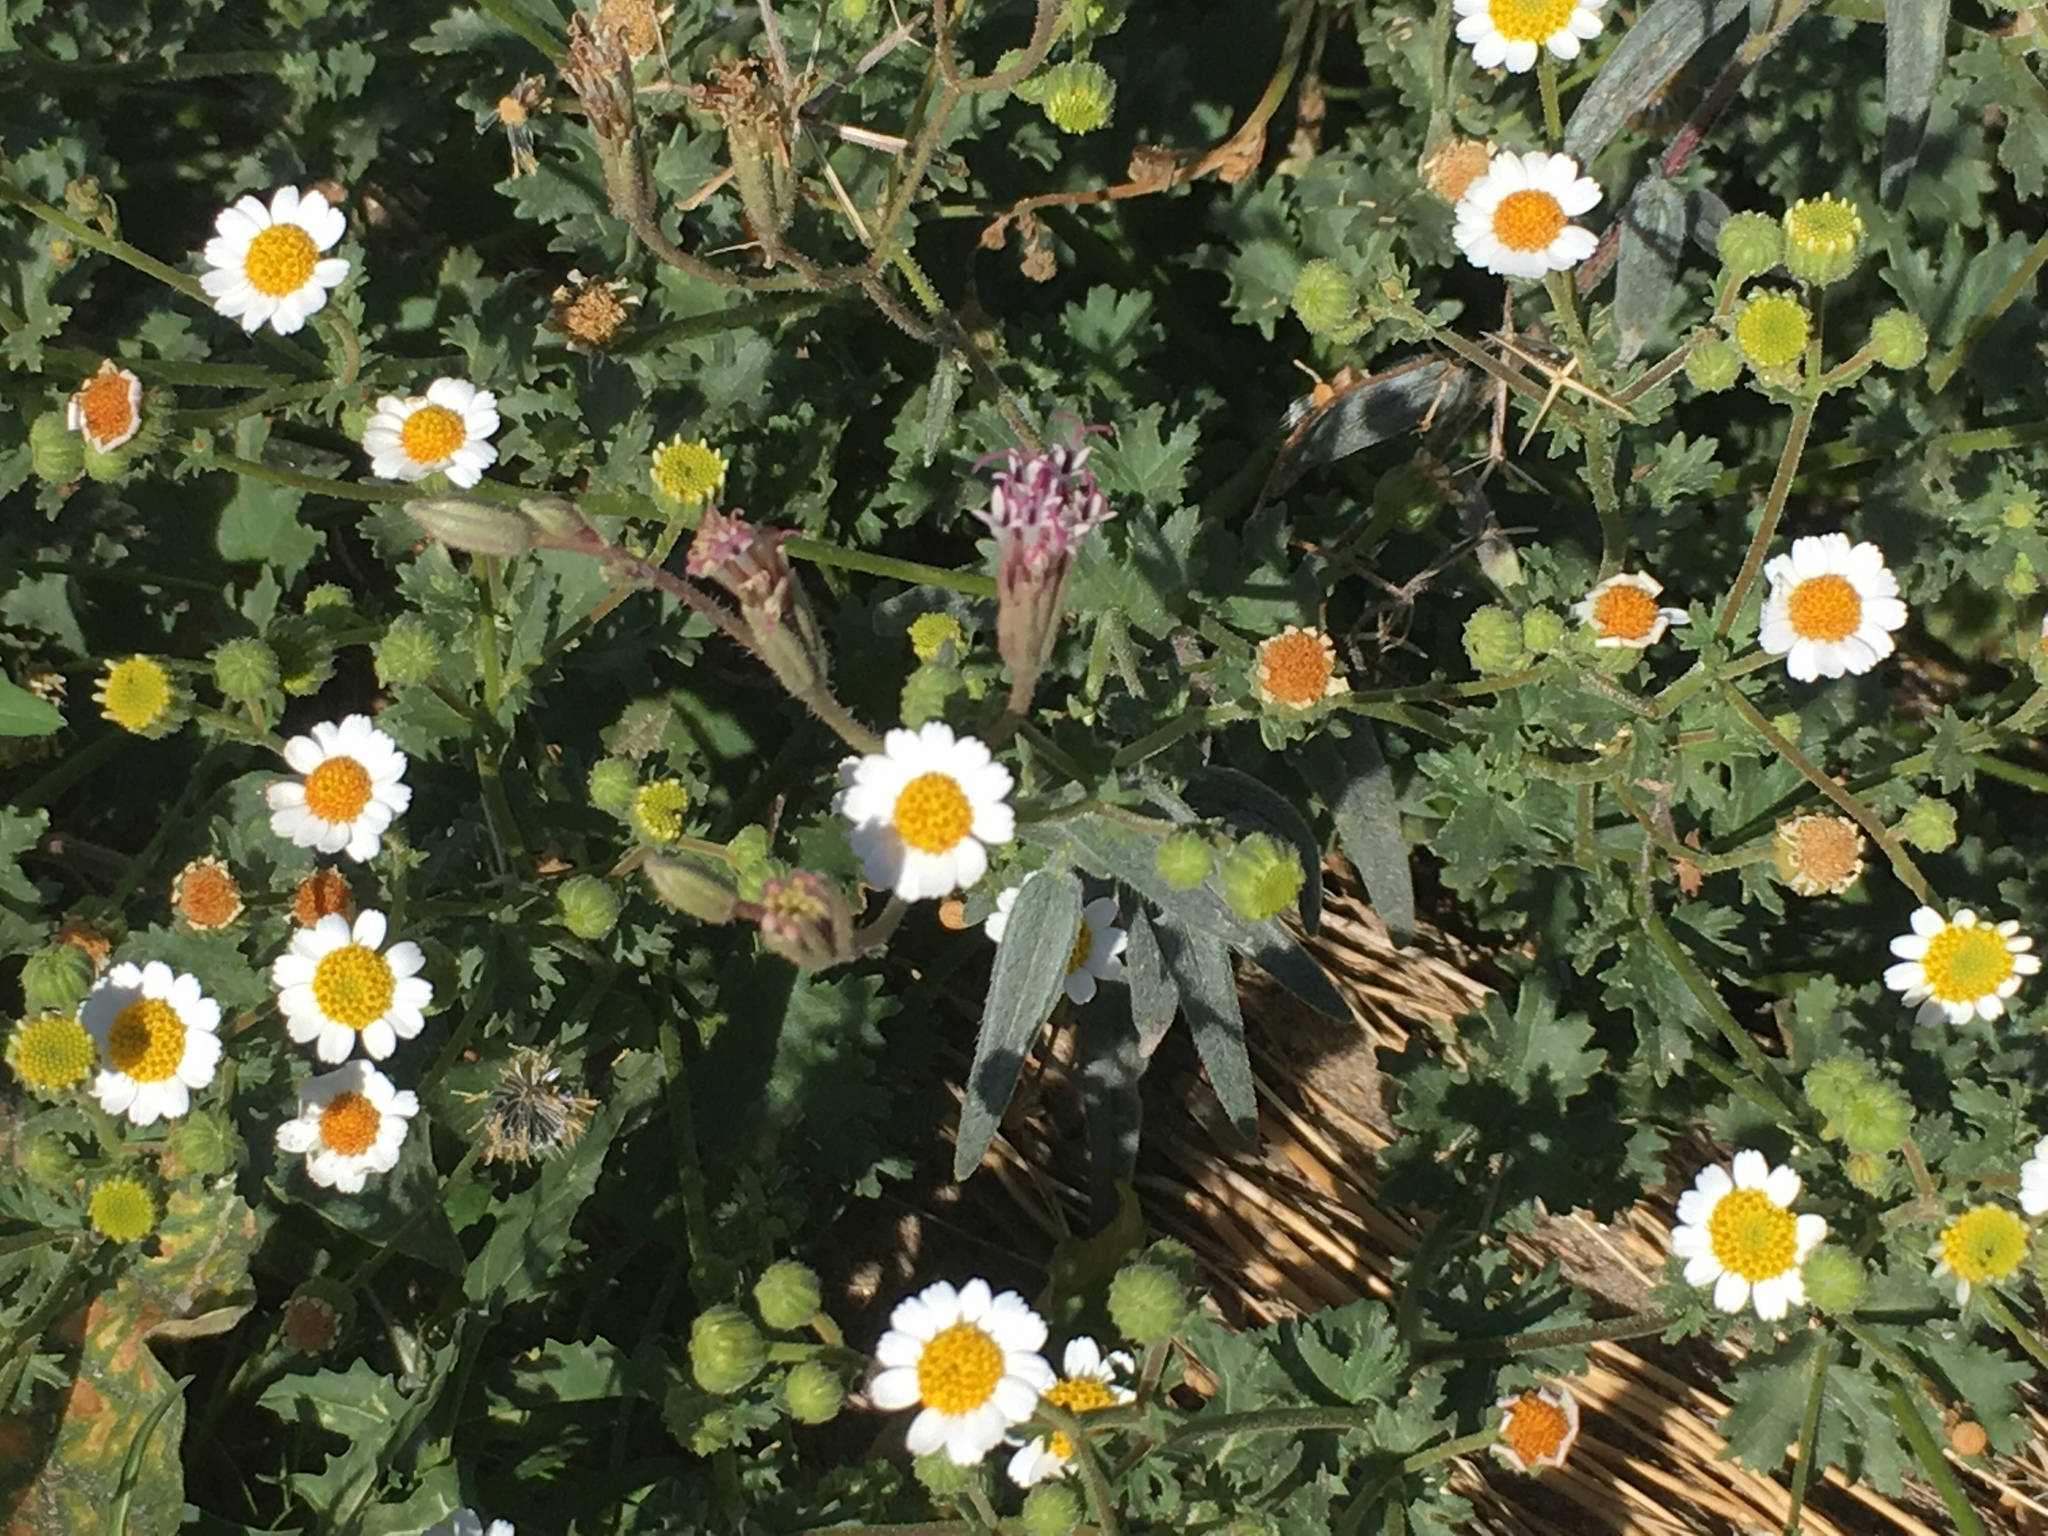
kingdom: Plantae
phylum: Tracheophyta
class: Magnoliopsida
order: Asterales
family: Asteraceae
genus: Laphamia
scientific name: Laphamia emoryi
